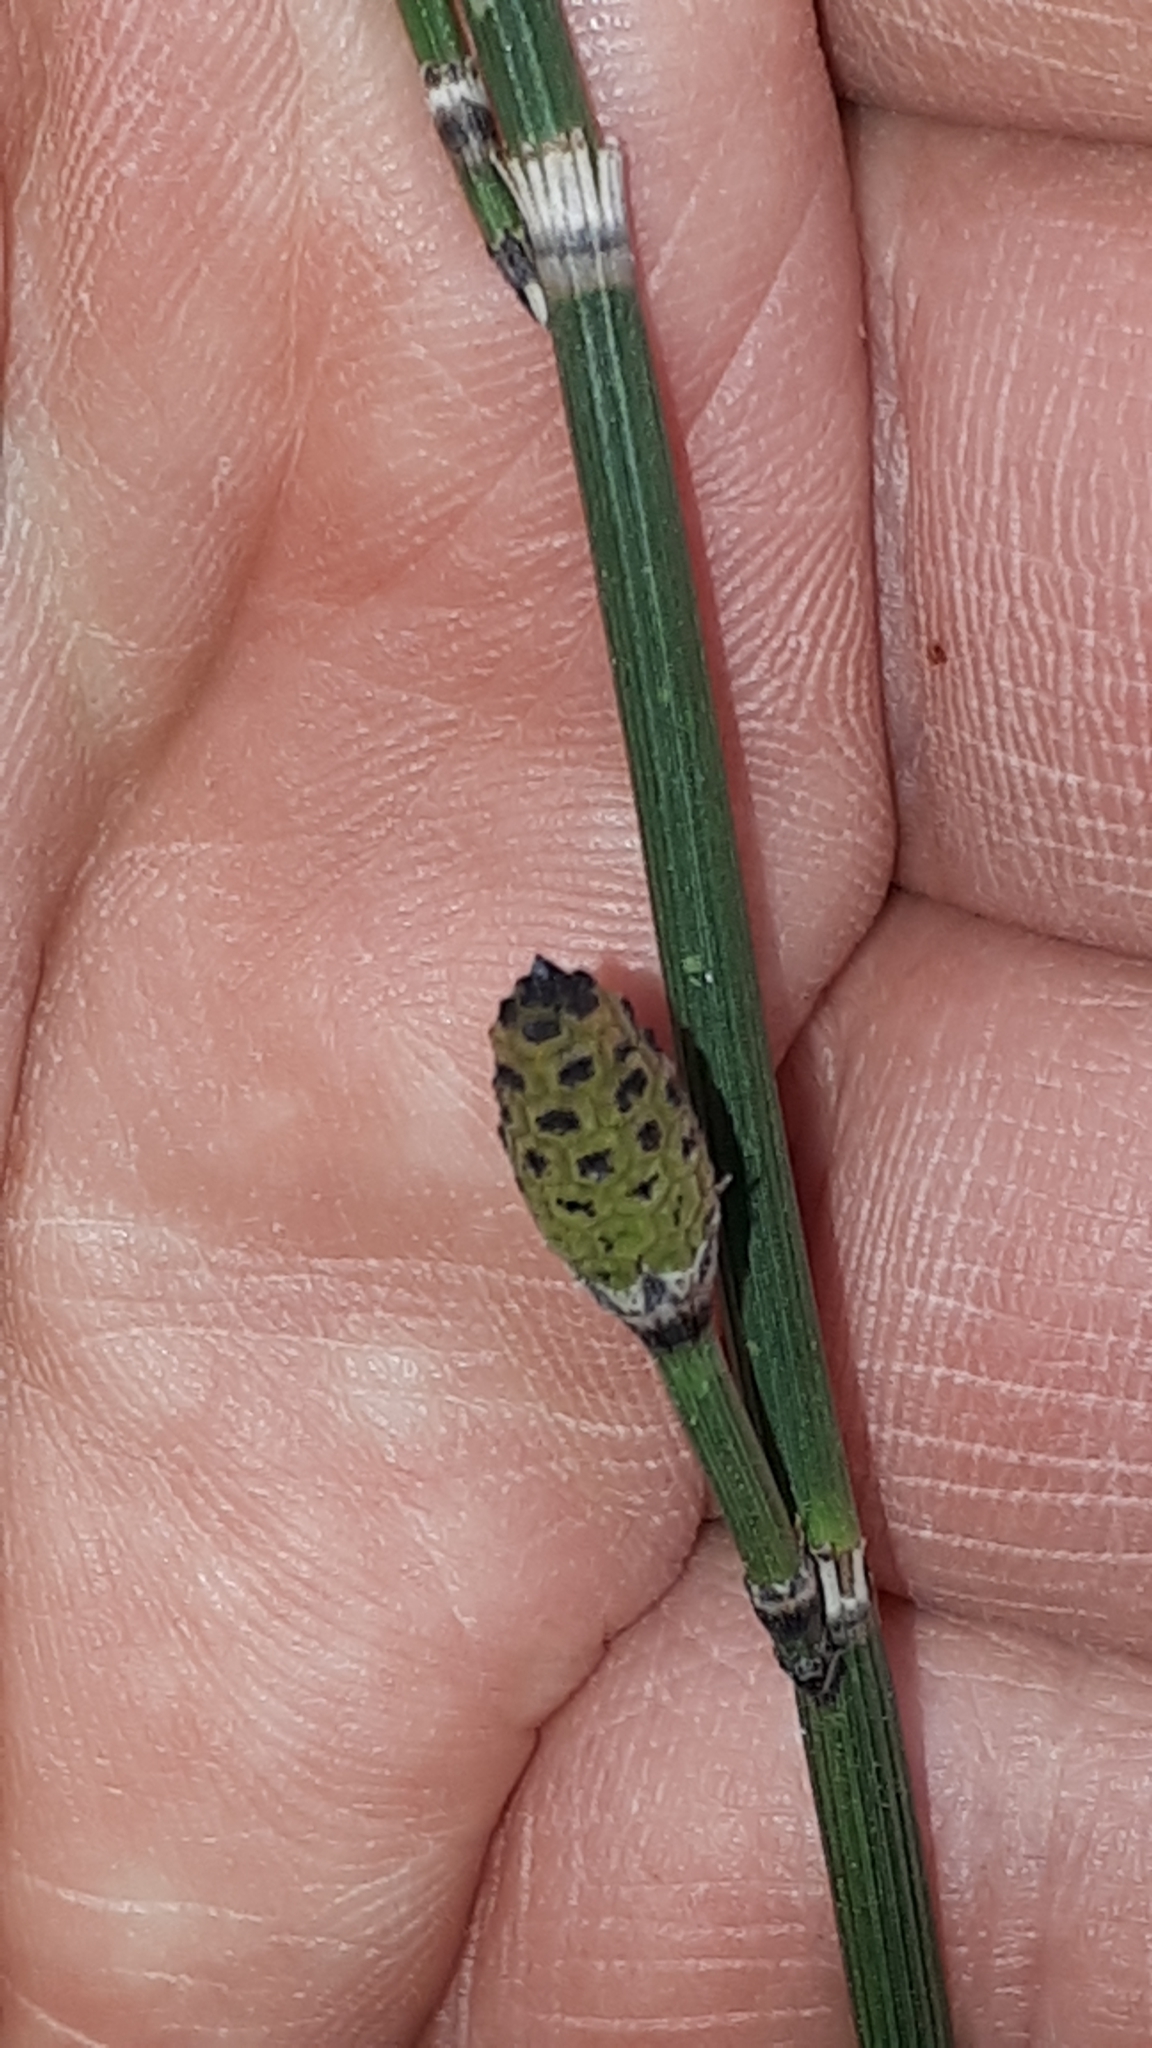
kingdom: Plantae
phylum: Tracheophyta
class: Polypodiopsida
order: Equisetales
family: Equisetaceae
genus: Equisetum
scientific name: Equisetum hyemale
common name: Rough horsetail
